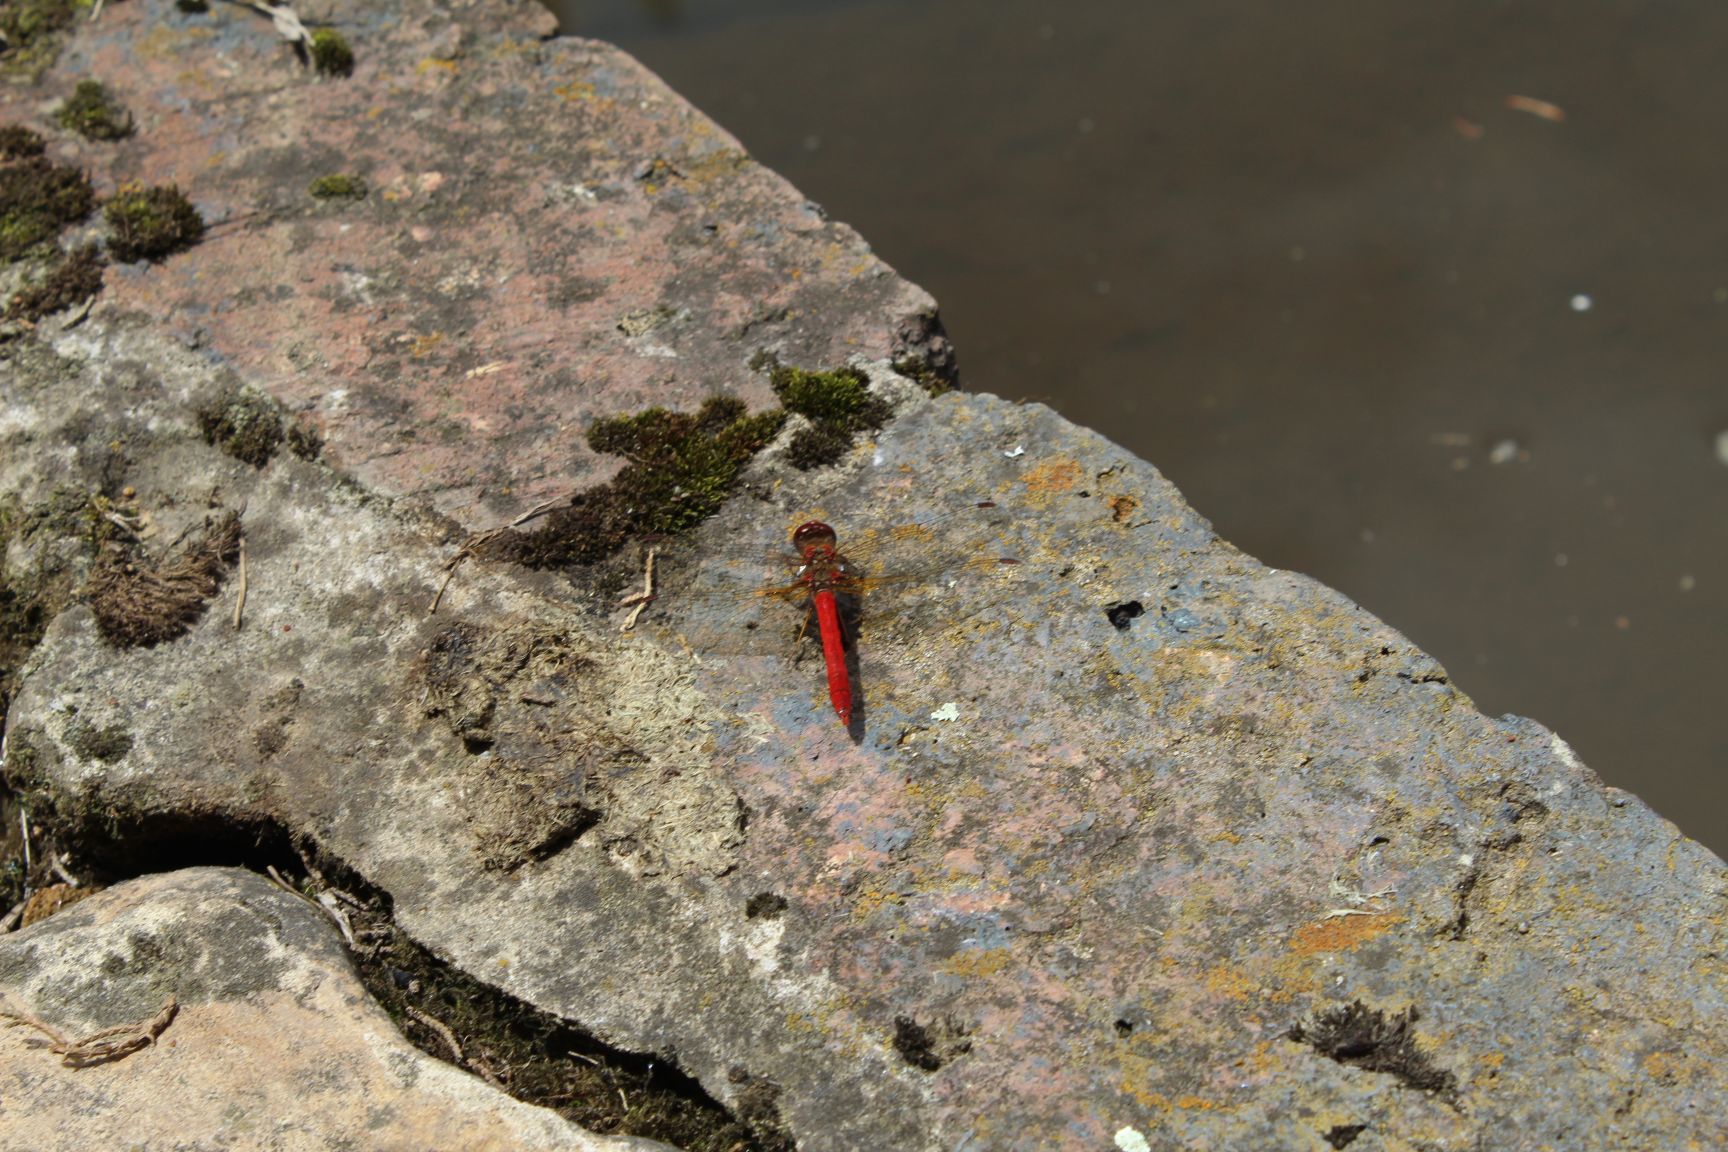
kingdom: Animalia
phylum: Arthropoda
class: Insecta
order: Odonata
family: Libellulidae
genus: Sympetrum
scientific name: Sympetrum gilvum
